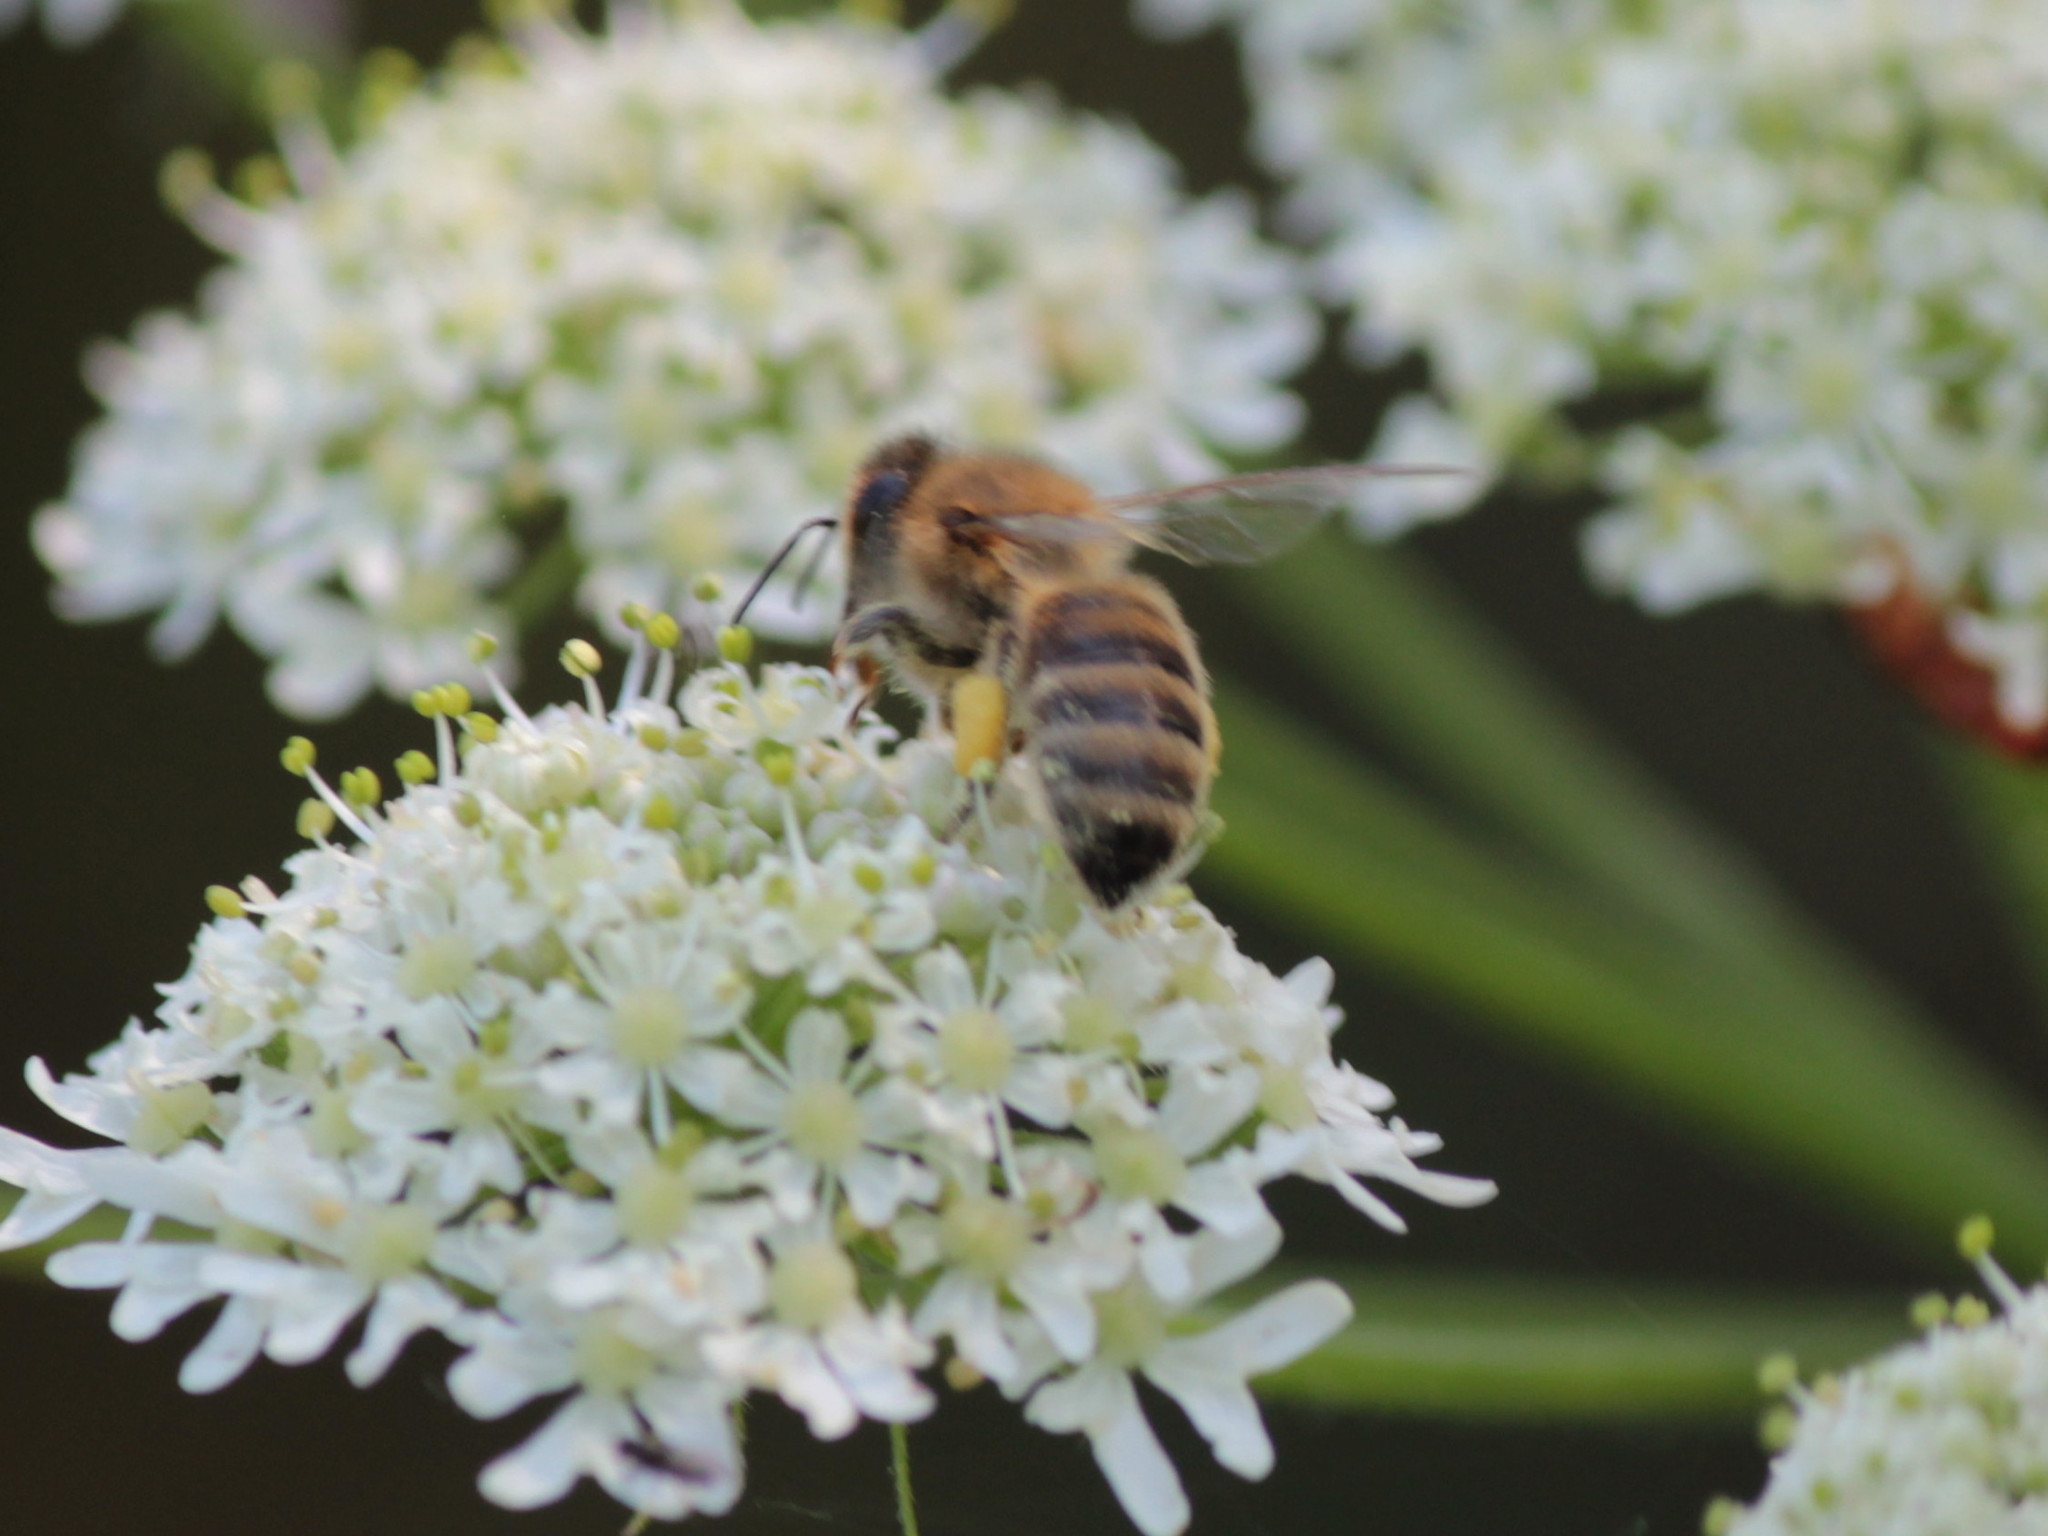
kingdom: Animalia
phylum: Arthropoda
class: Insecta
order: Hymenoptera
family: Apidae
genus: Apis
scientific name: Apis mellifera
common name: Honey bee
